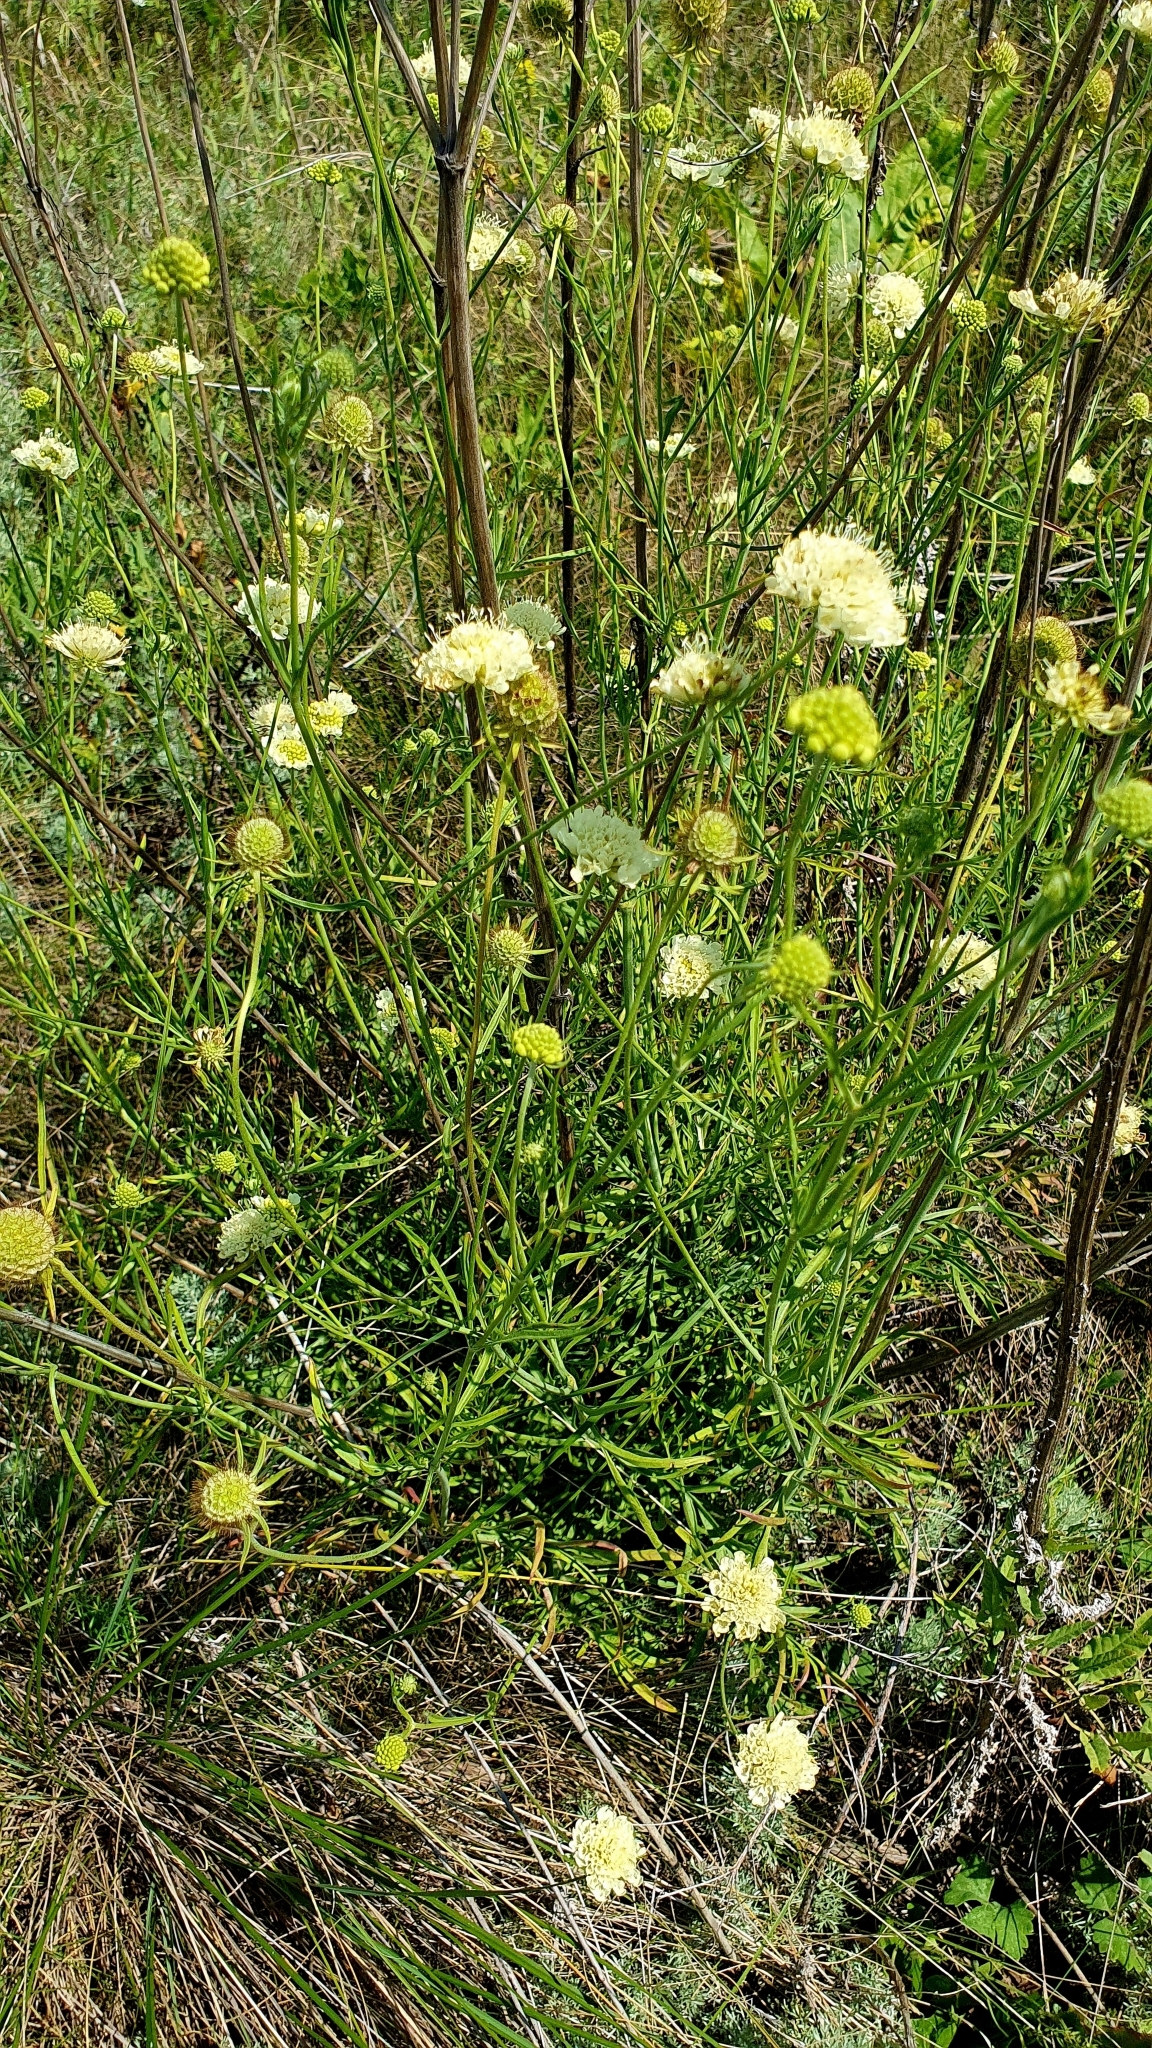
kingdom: Plantae
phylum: Tracheophyta
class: Magnoliopsida
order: Dipsacales
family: Caprifoliaceae
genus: Scabiosa
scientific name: Scabiosa ochroleuca
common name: Cream pincushions
